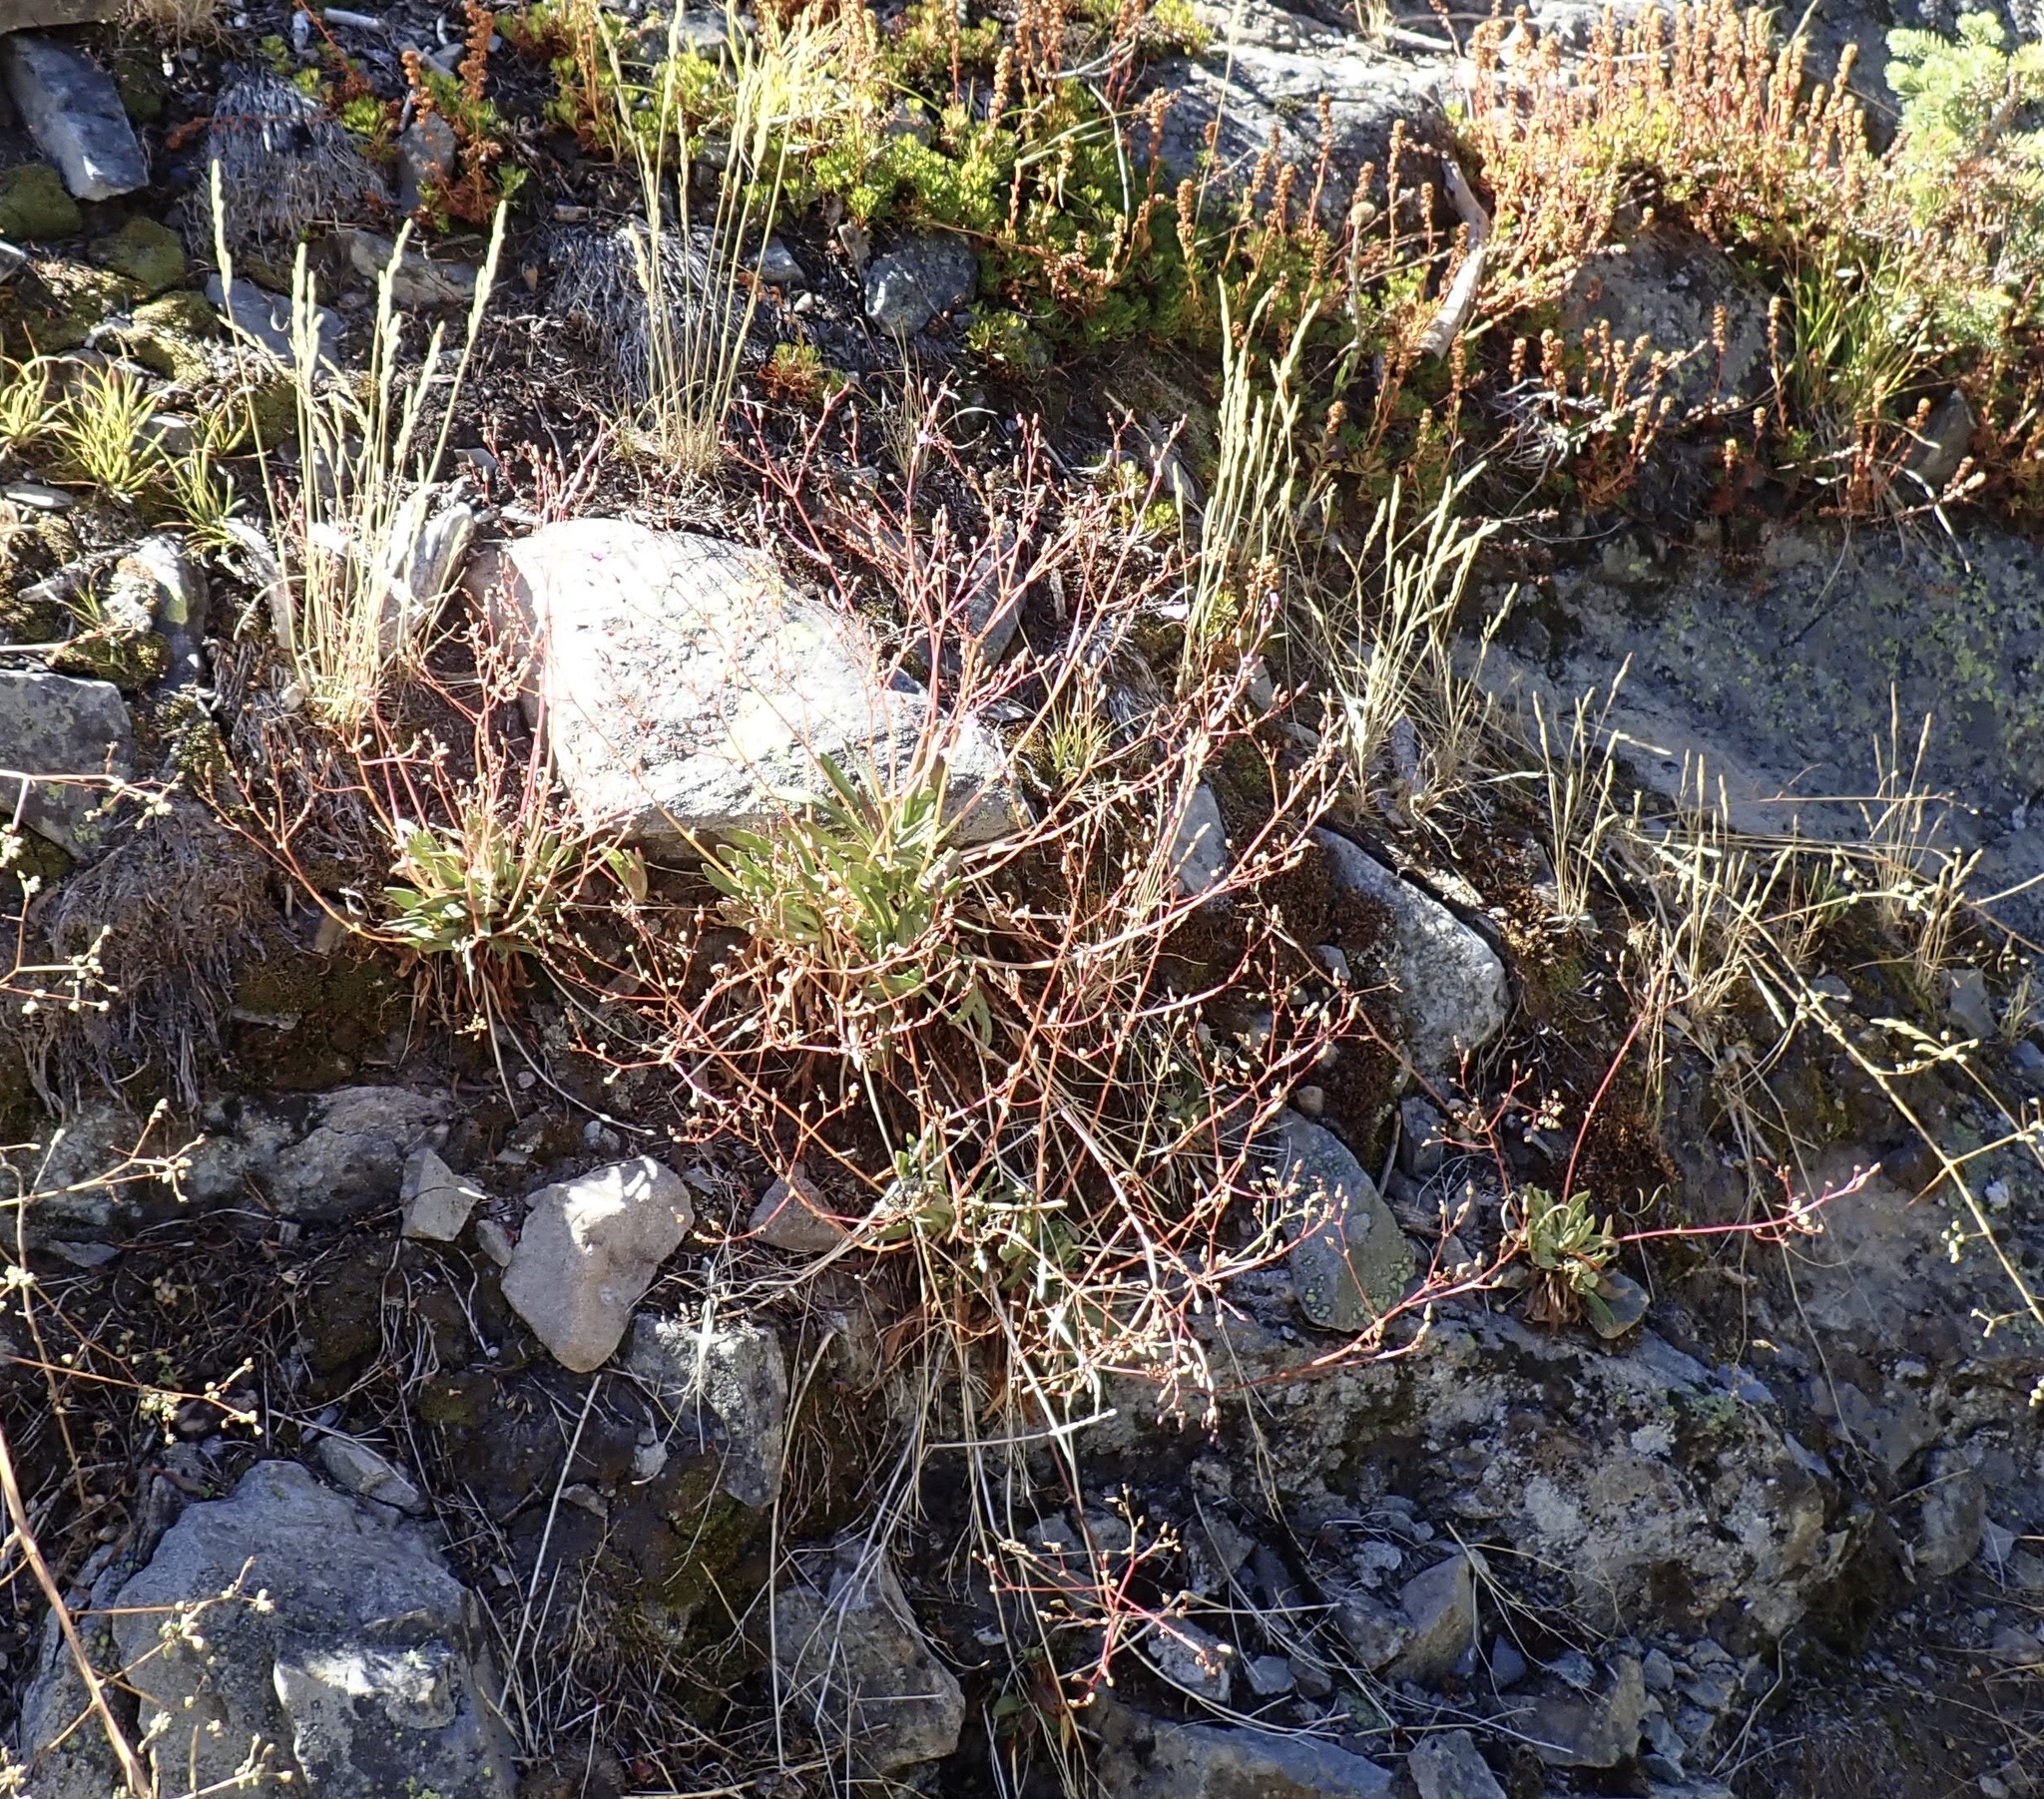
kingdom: Plantae
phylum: Tracheophyta
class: Magnoliopsida
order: Caryophyllales
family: Montiaceae
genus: Lewisia
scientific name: Lewisia columbiana
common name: Columbia lewisia
